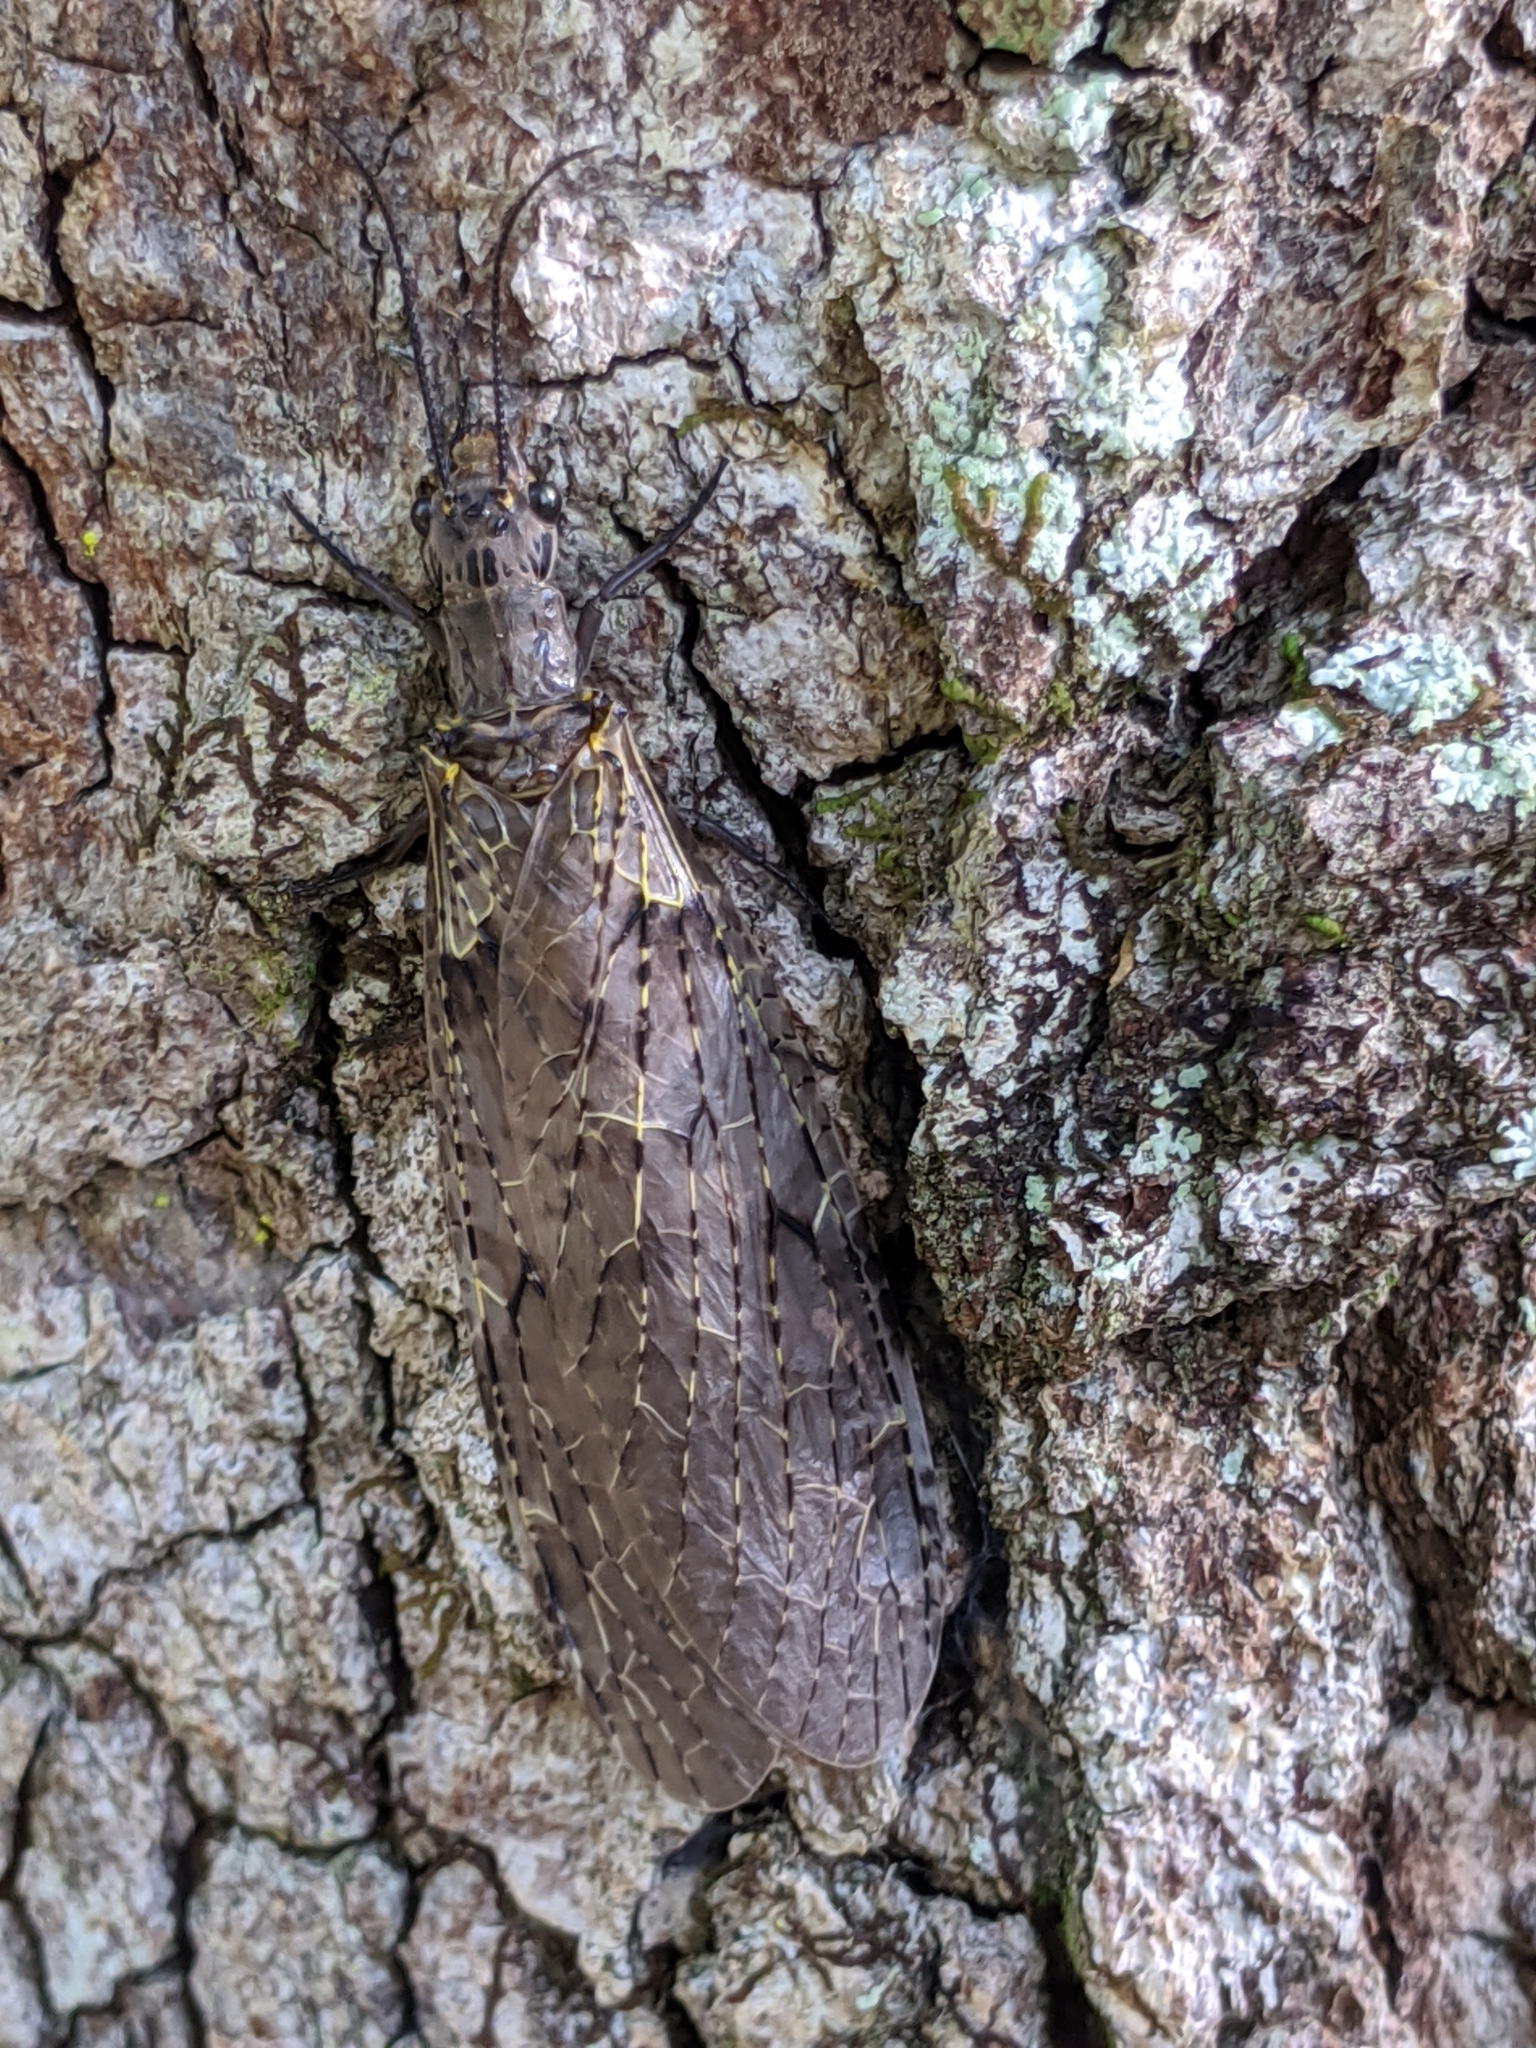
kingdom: Animalia
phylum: Arthropoda
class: Insecta
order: Megaloptera
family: Corydalidae
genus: Chauliodes
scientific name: Chauliodes rastricornis
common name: Spring fishfly
